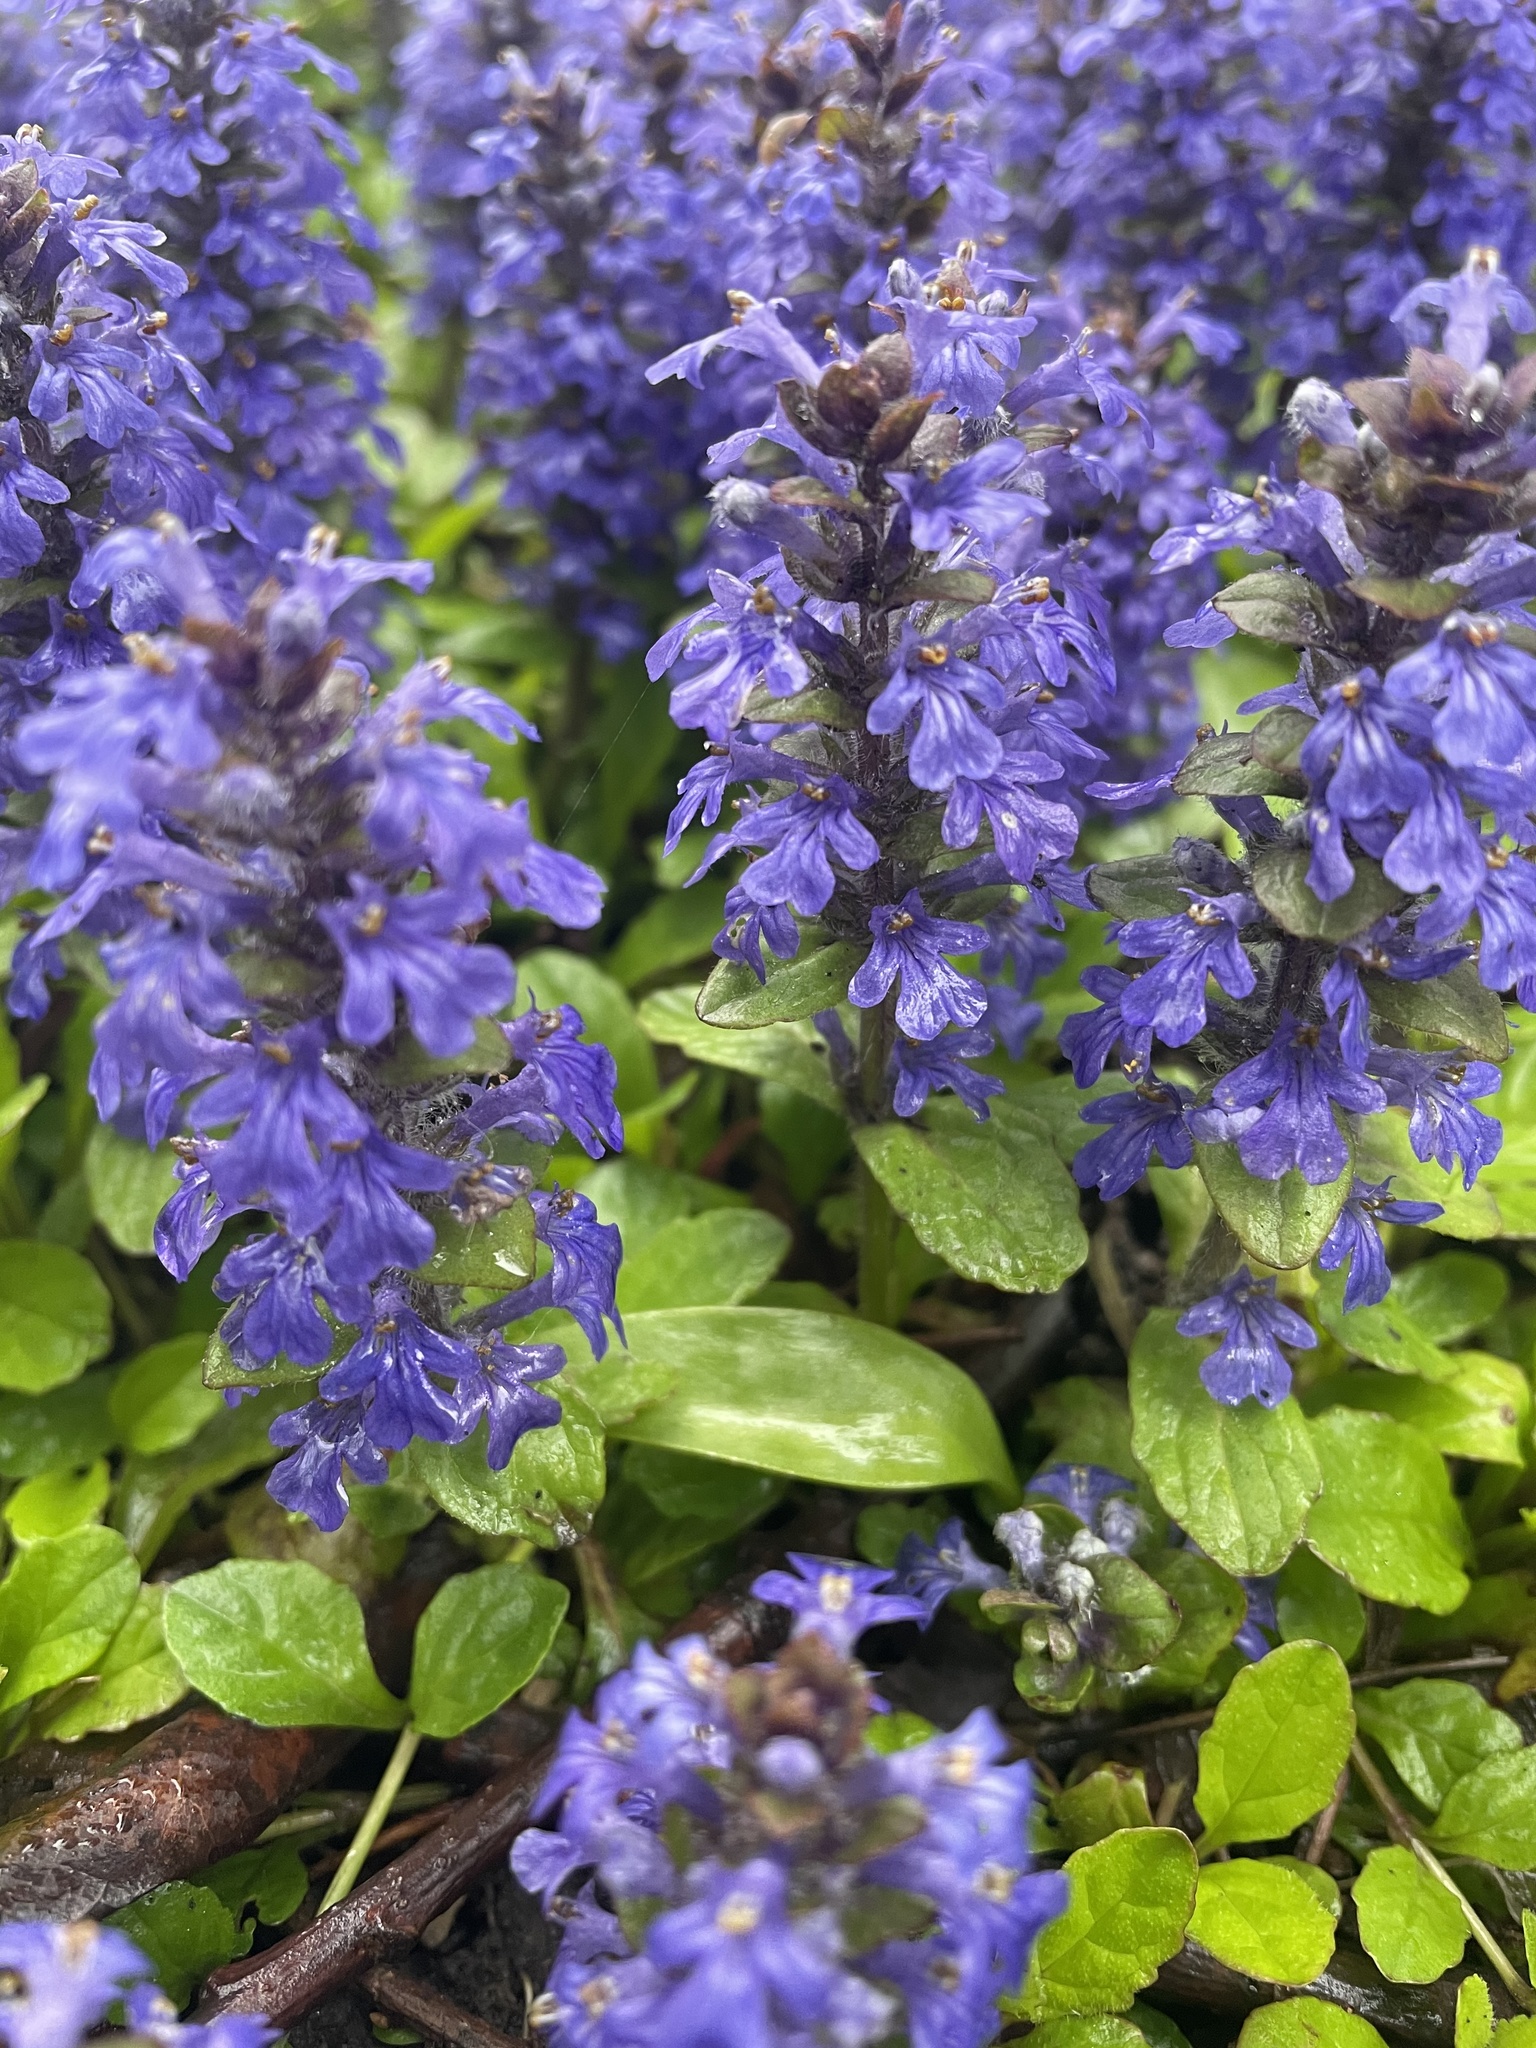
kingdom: Plantae
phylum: Tracheophyta
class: Magnoliopsida
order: Lamiales
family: Lamiaceae
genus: Ajuga
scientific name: Ajuga reptans
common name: Bugle
